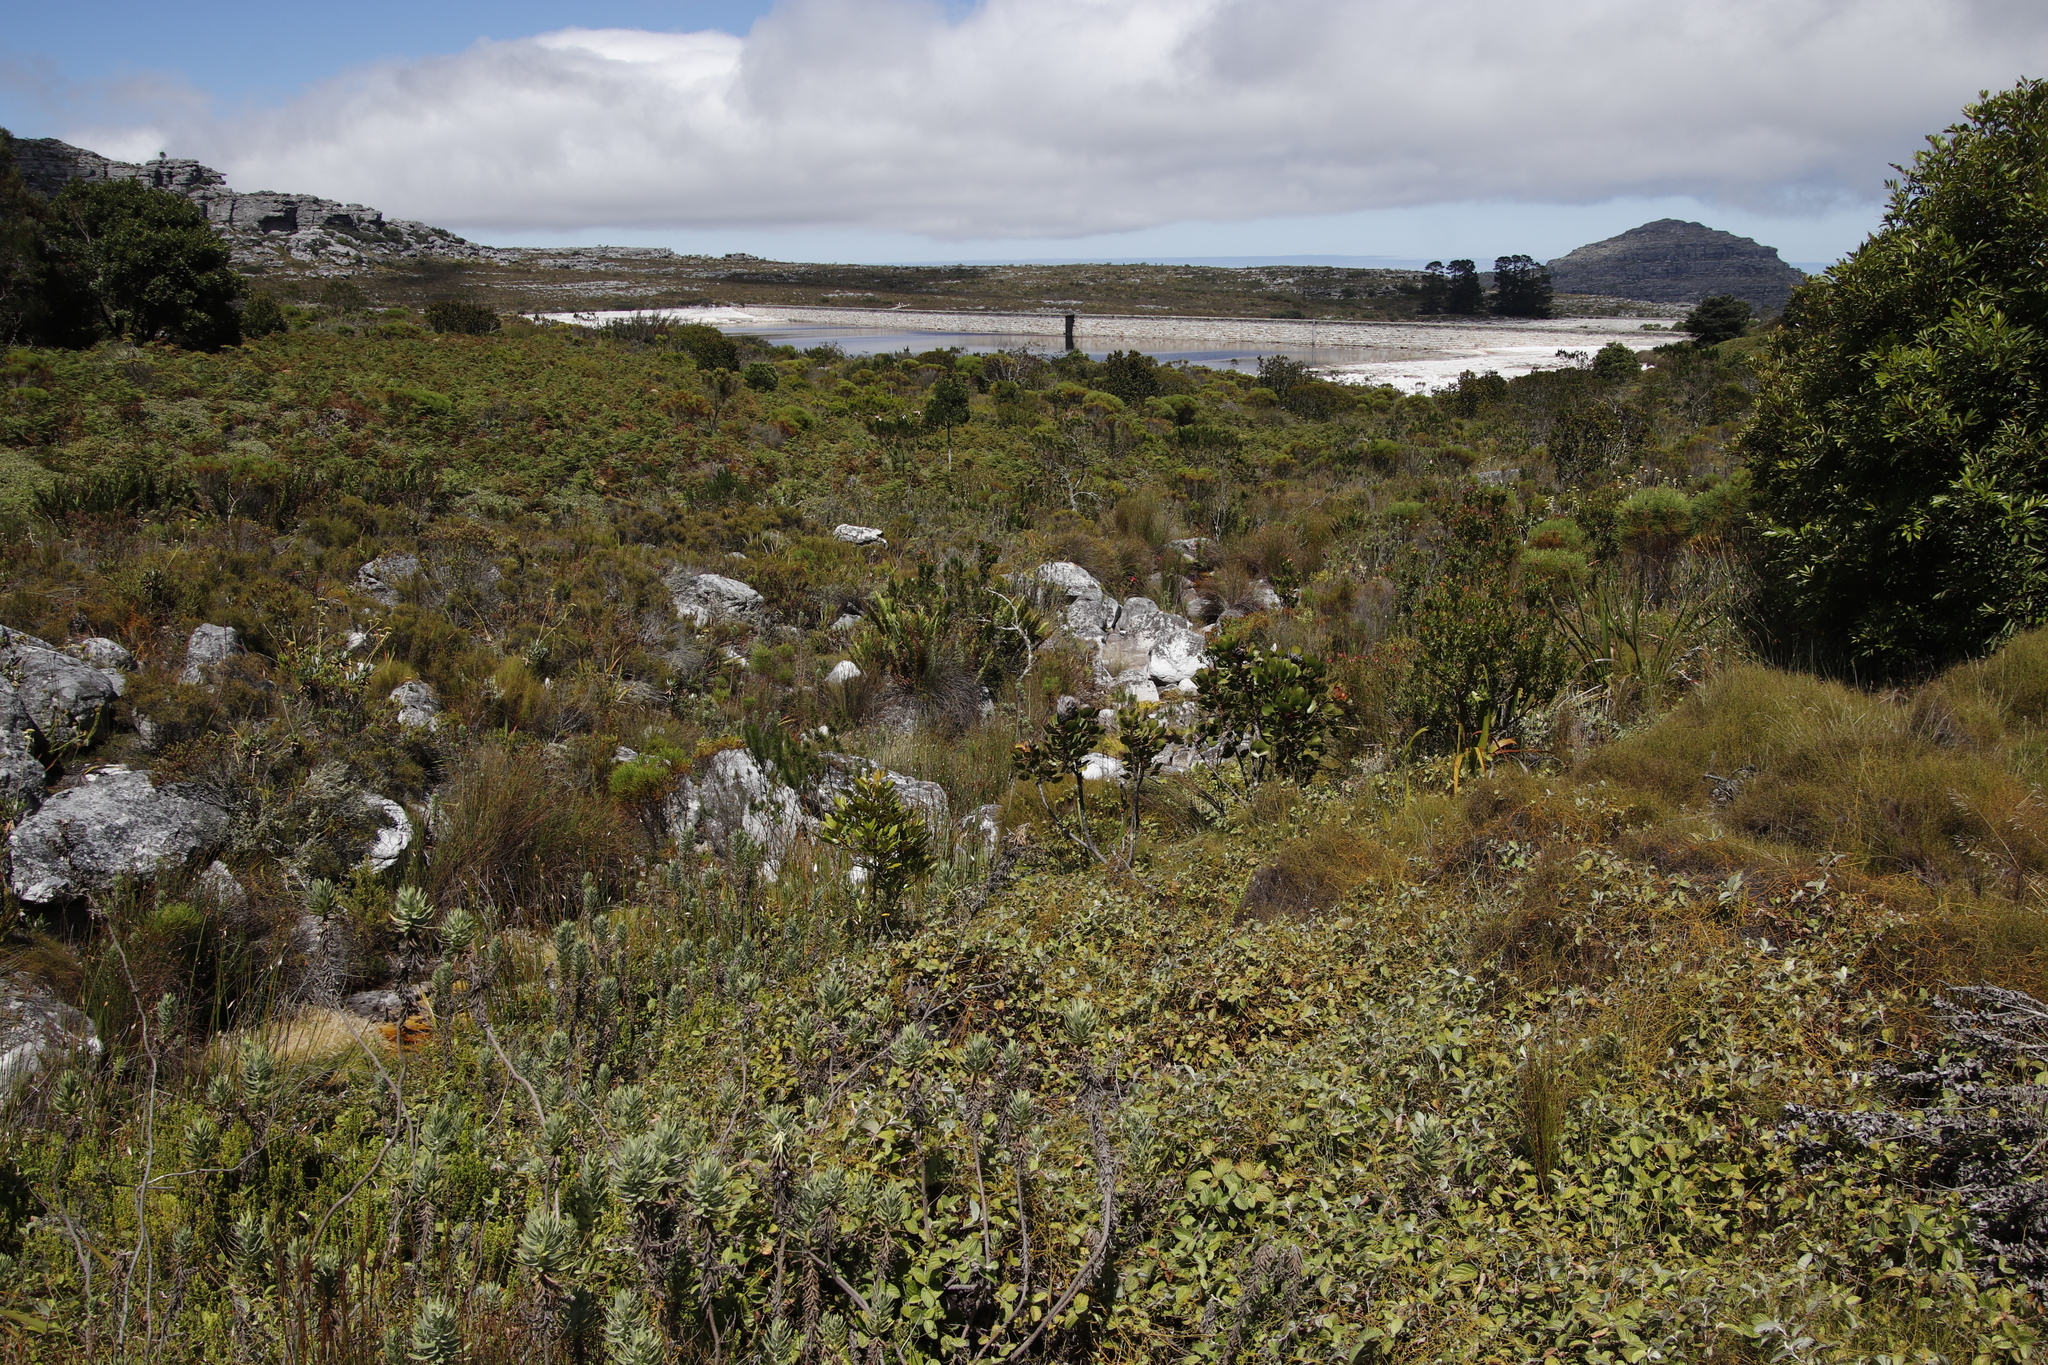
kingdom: Plantae
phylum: Tracheophyta
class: Magnoliopsida
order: Proteales
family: Proteaceae
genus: Protea
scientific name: Protea cynaroides
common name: King protea
